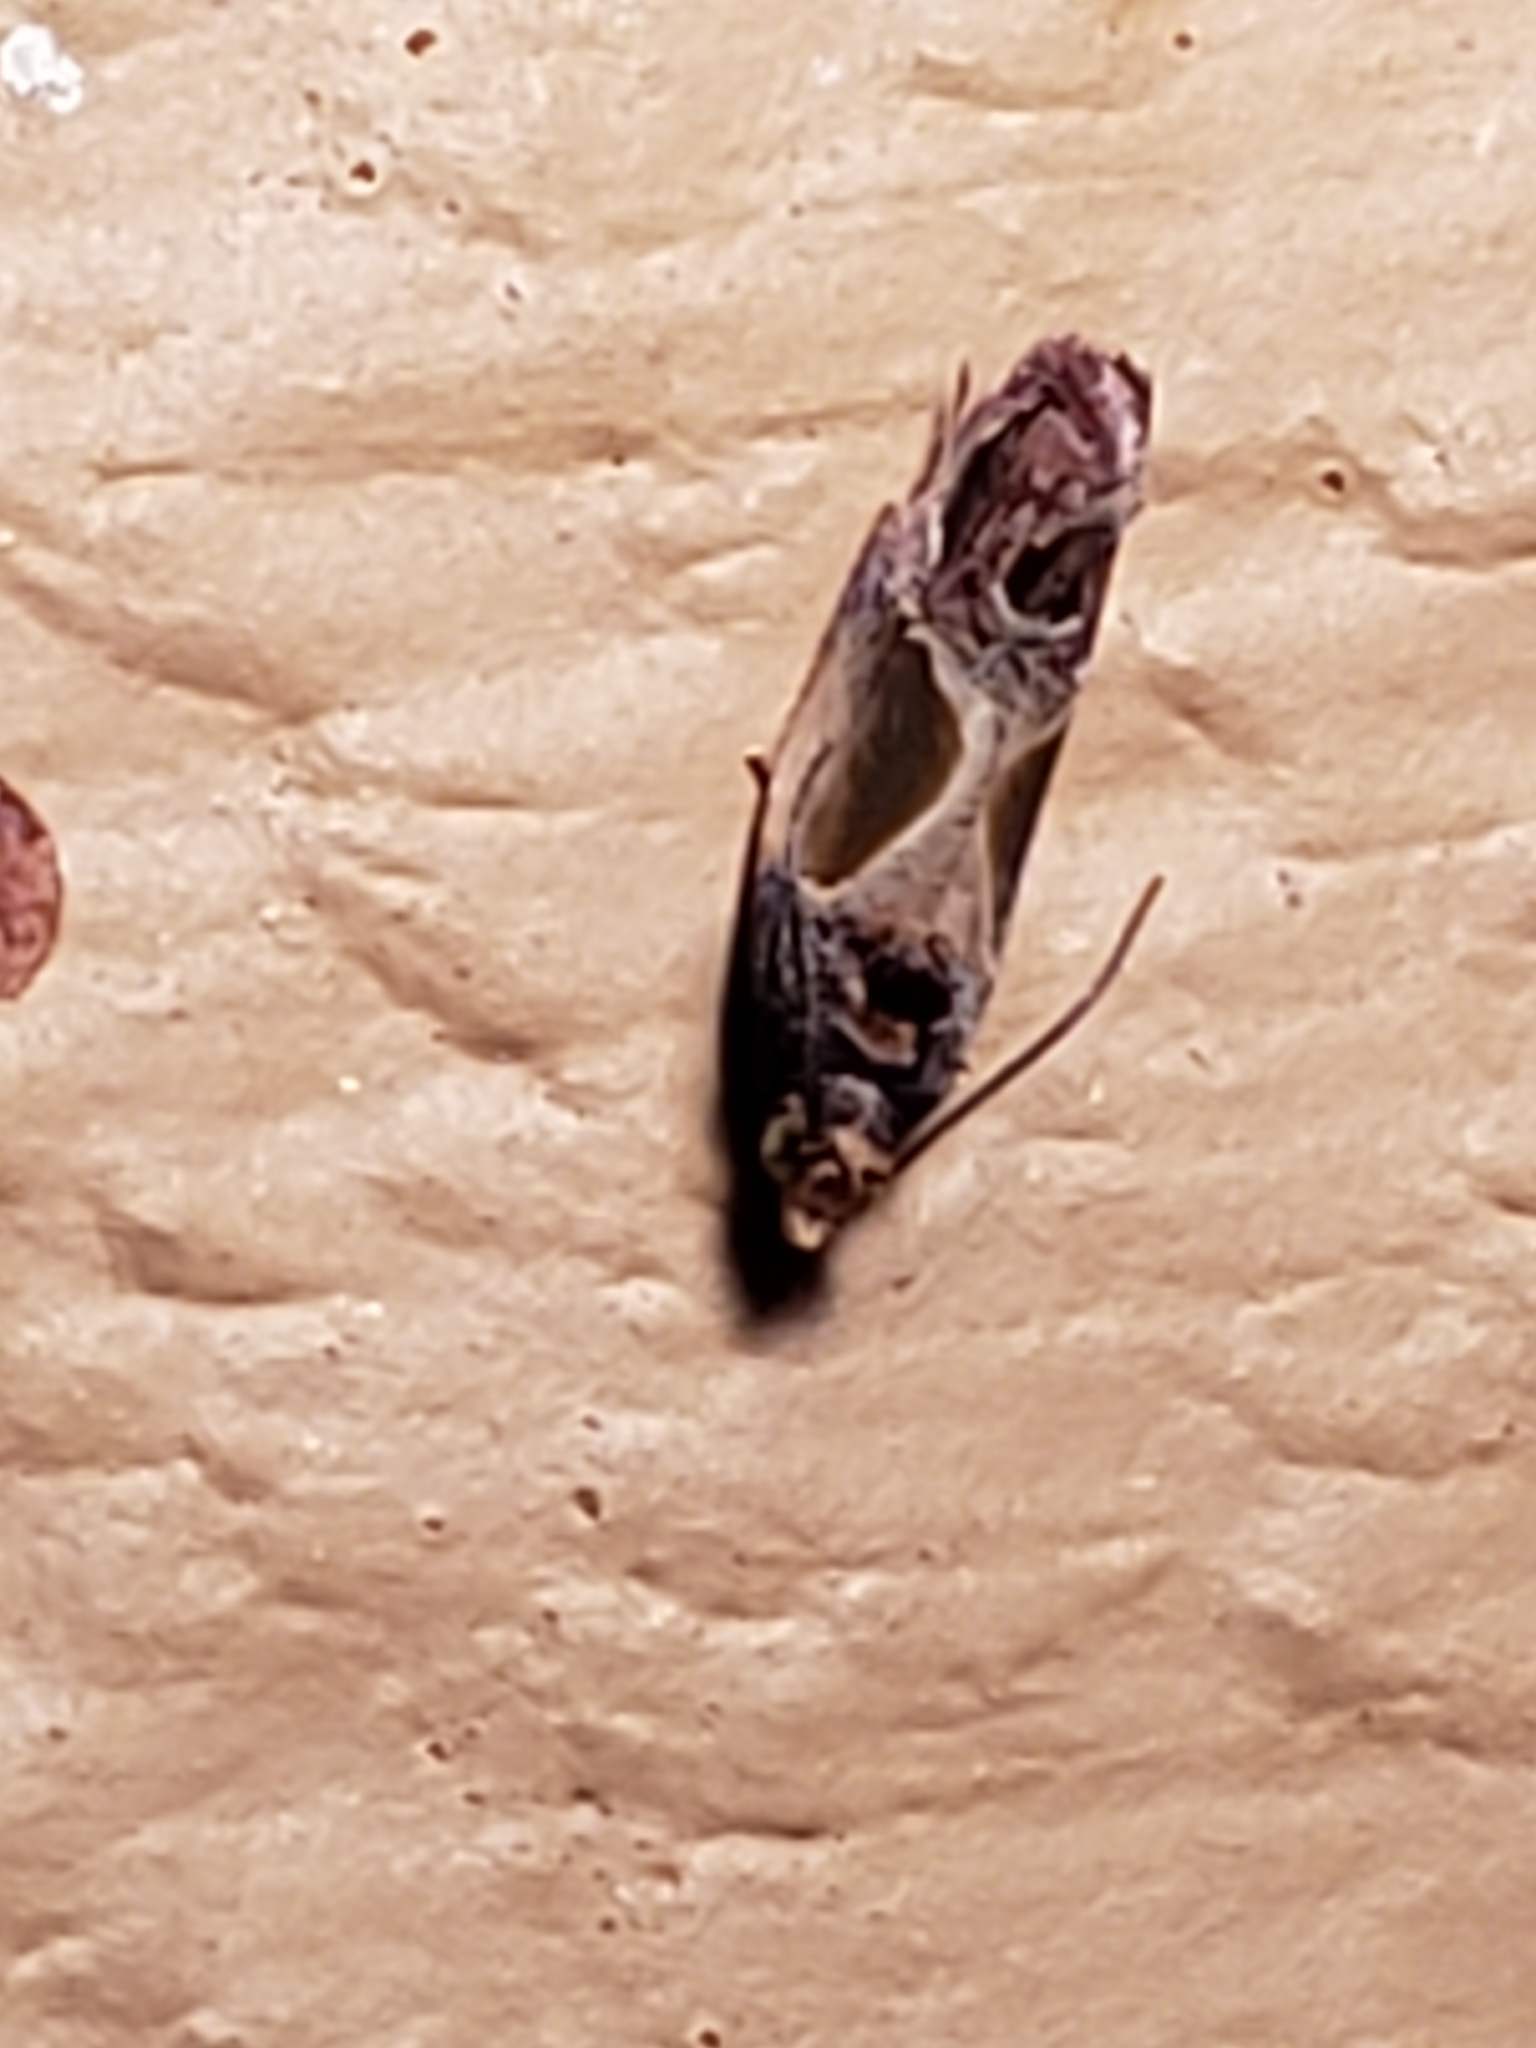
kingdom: Animalia
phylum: Arthropoda
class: Insecta
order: Lepidoptera
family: Tortricidae
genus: Eumarozia
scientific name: Eumarozia malachitana
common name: Sculptured moth
